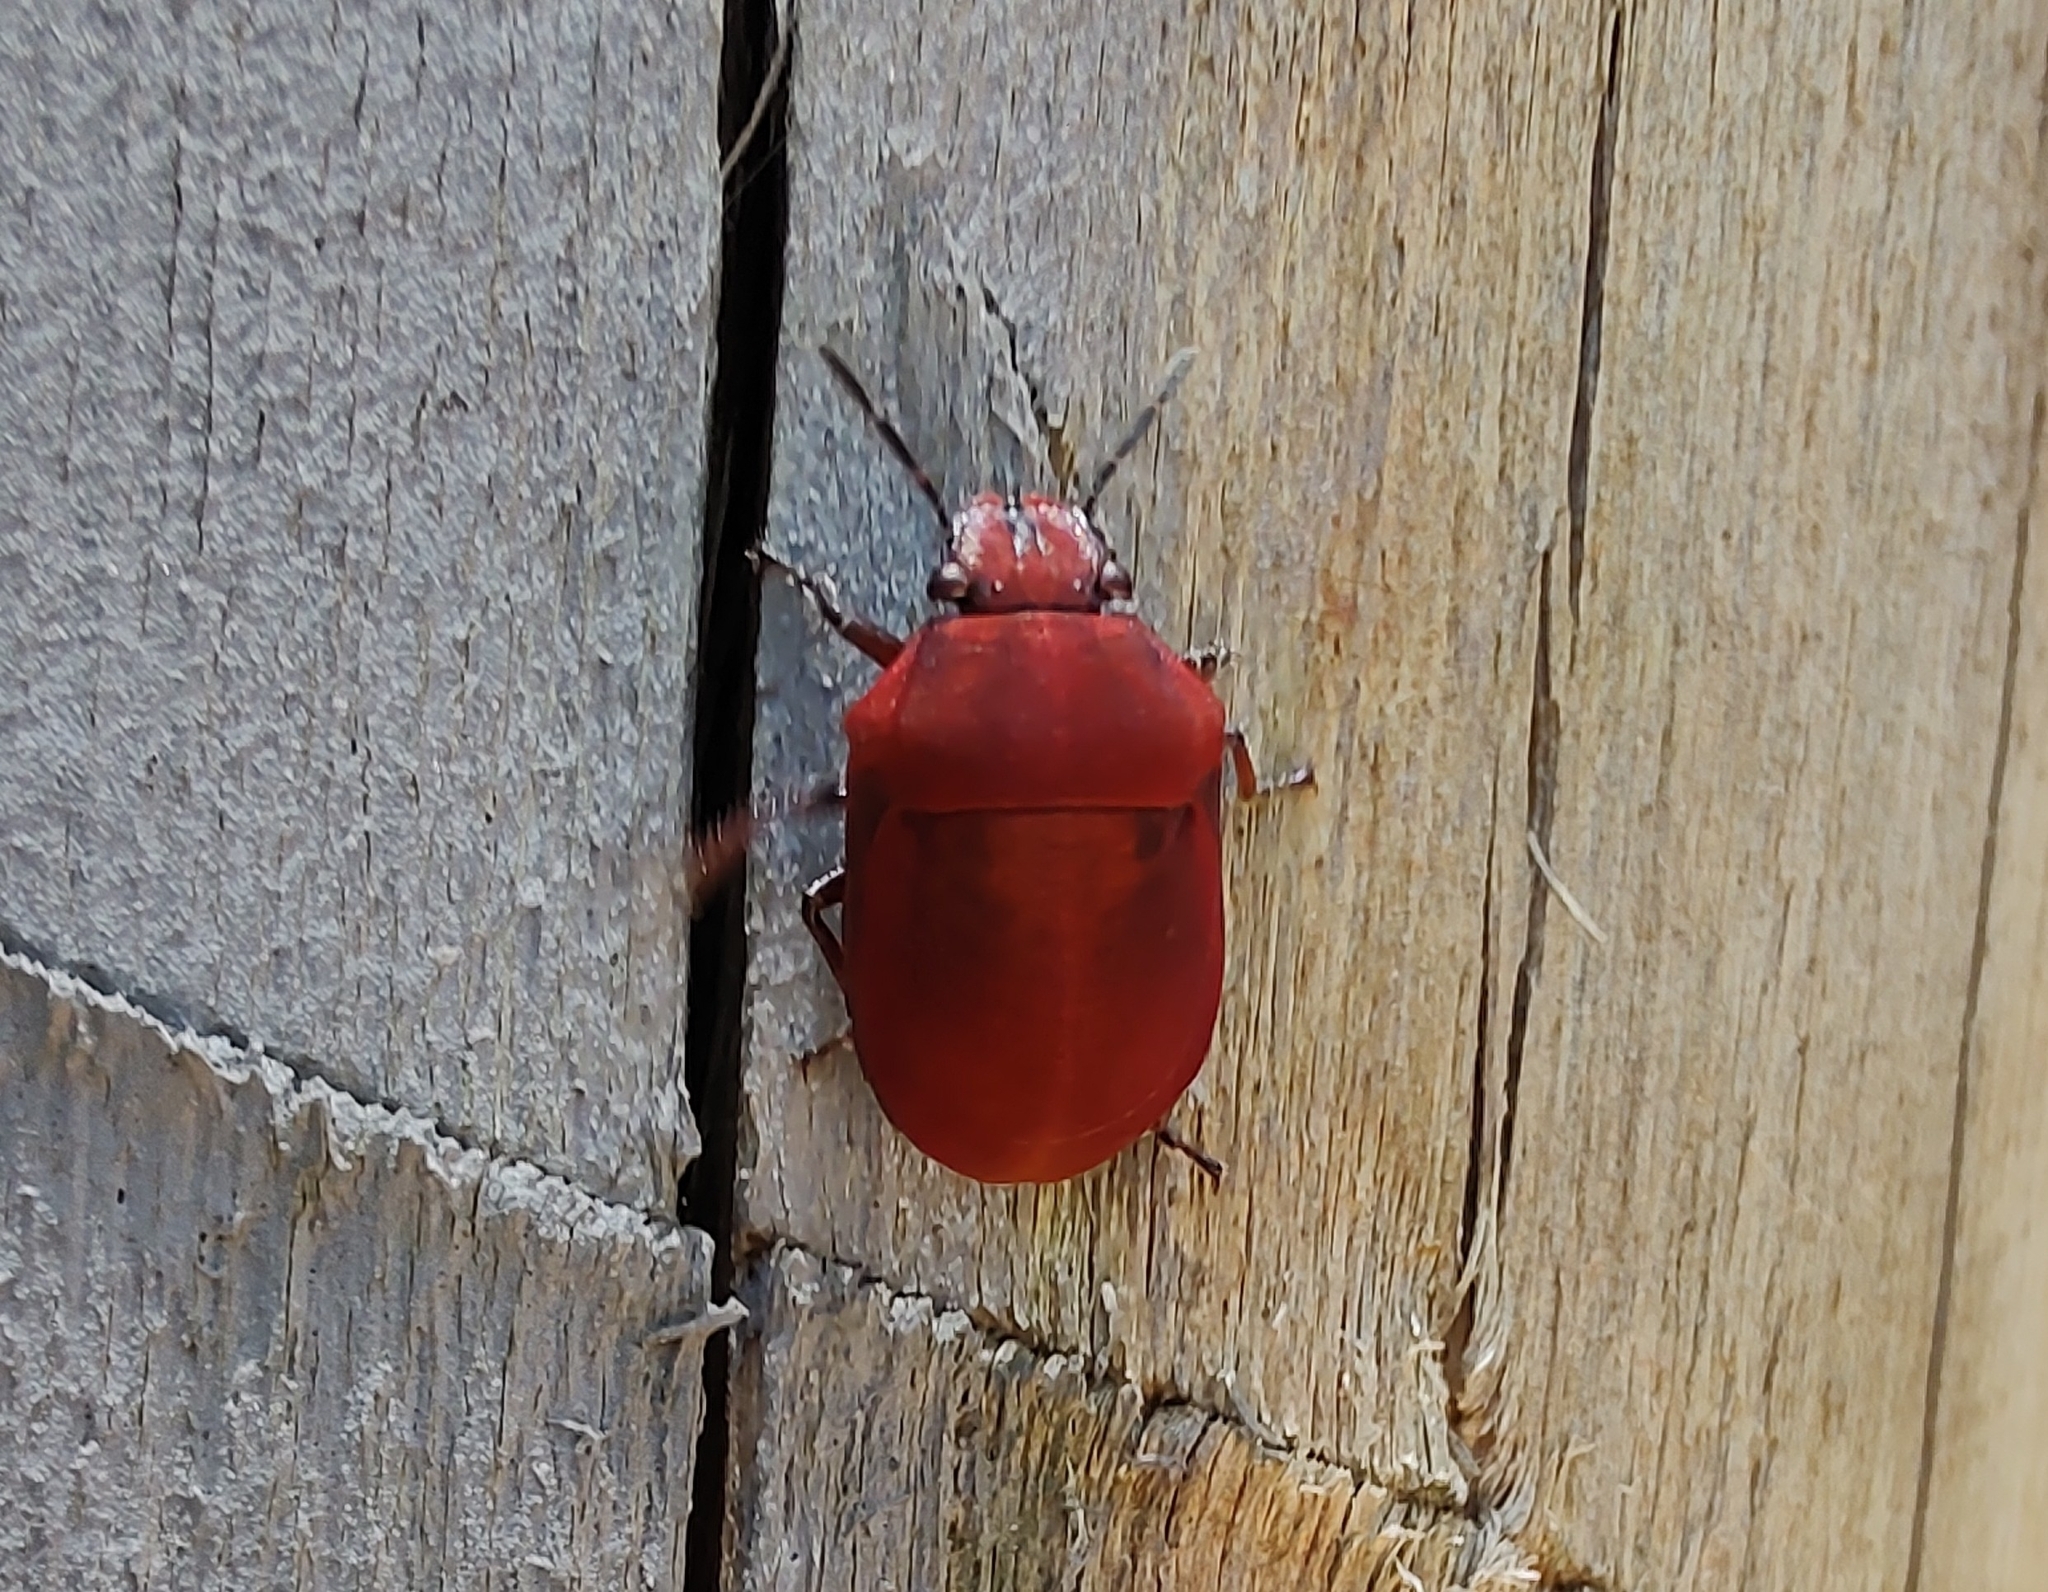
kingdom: Animalia
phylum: Arthropoda
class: Insecta
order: Hemiptera
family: Scutelleridae
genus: Coptochilus
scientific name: Coptochilus ferrugineus
